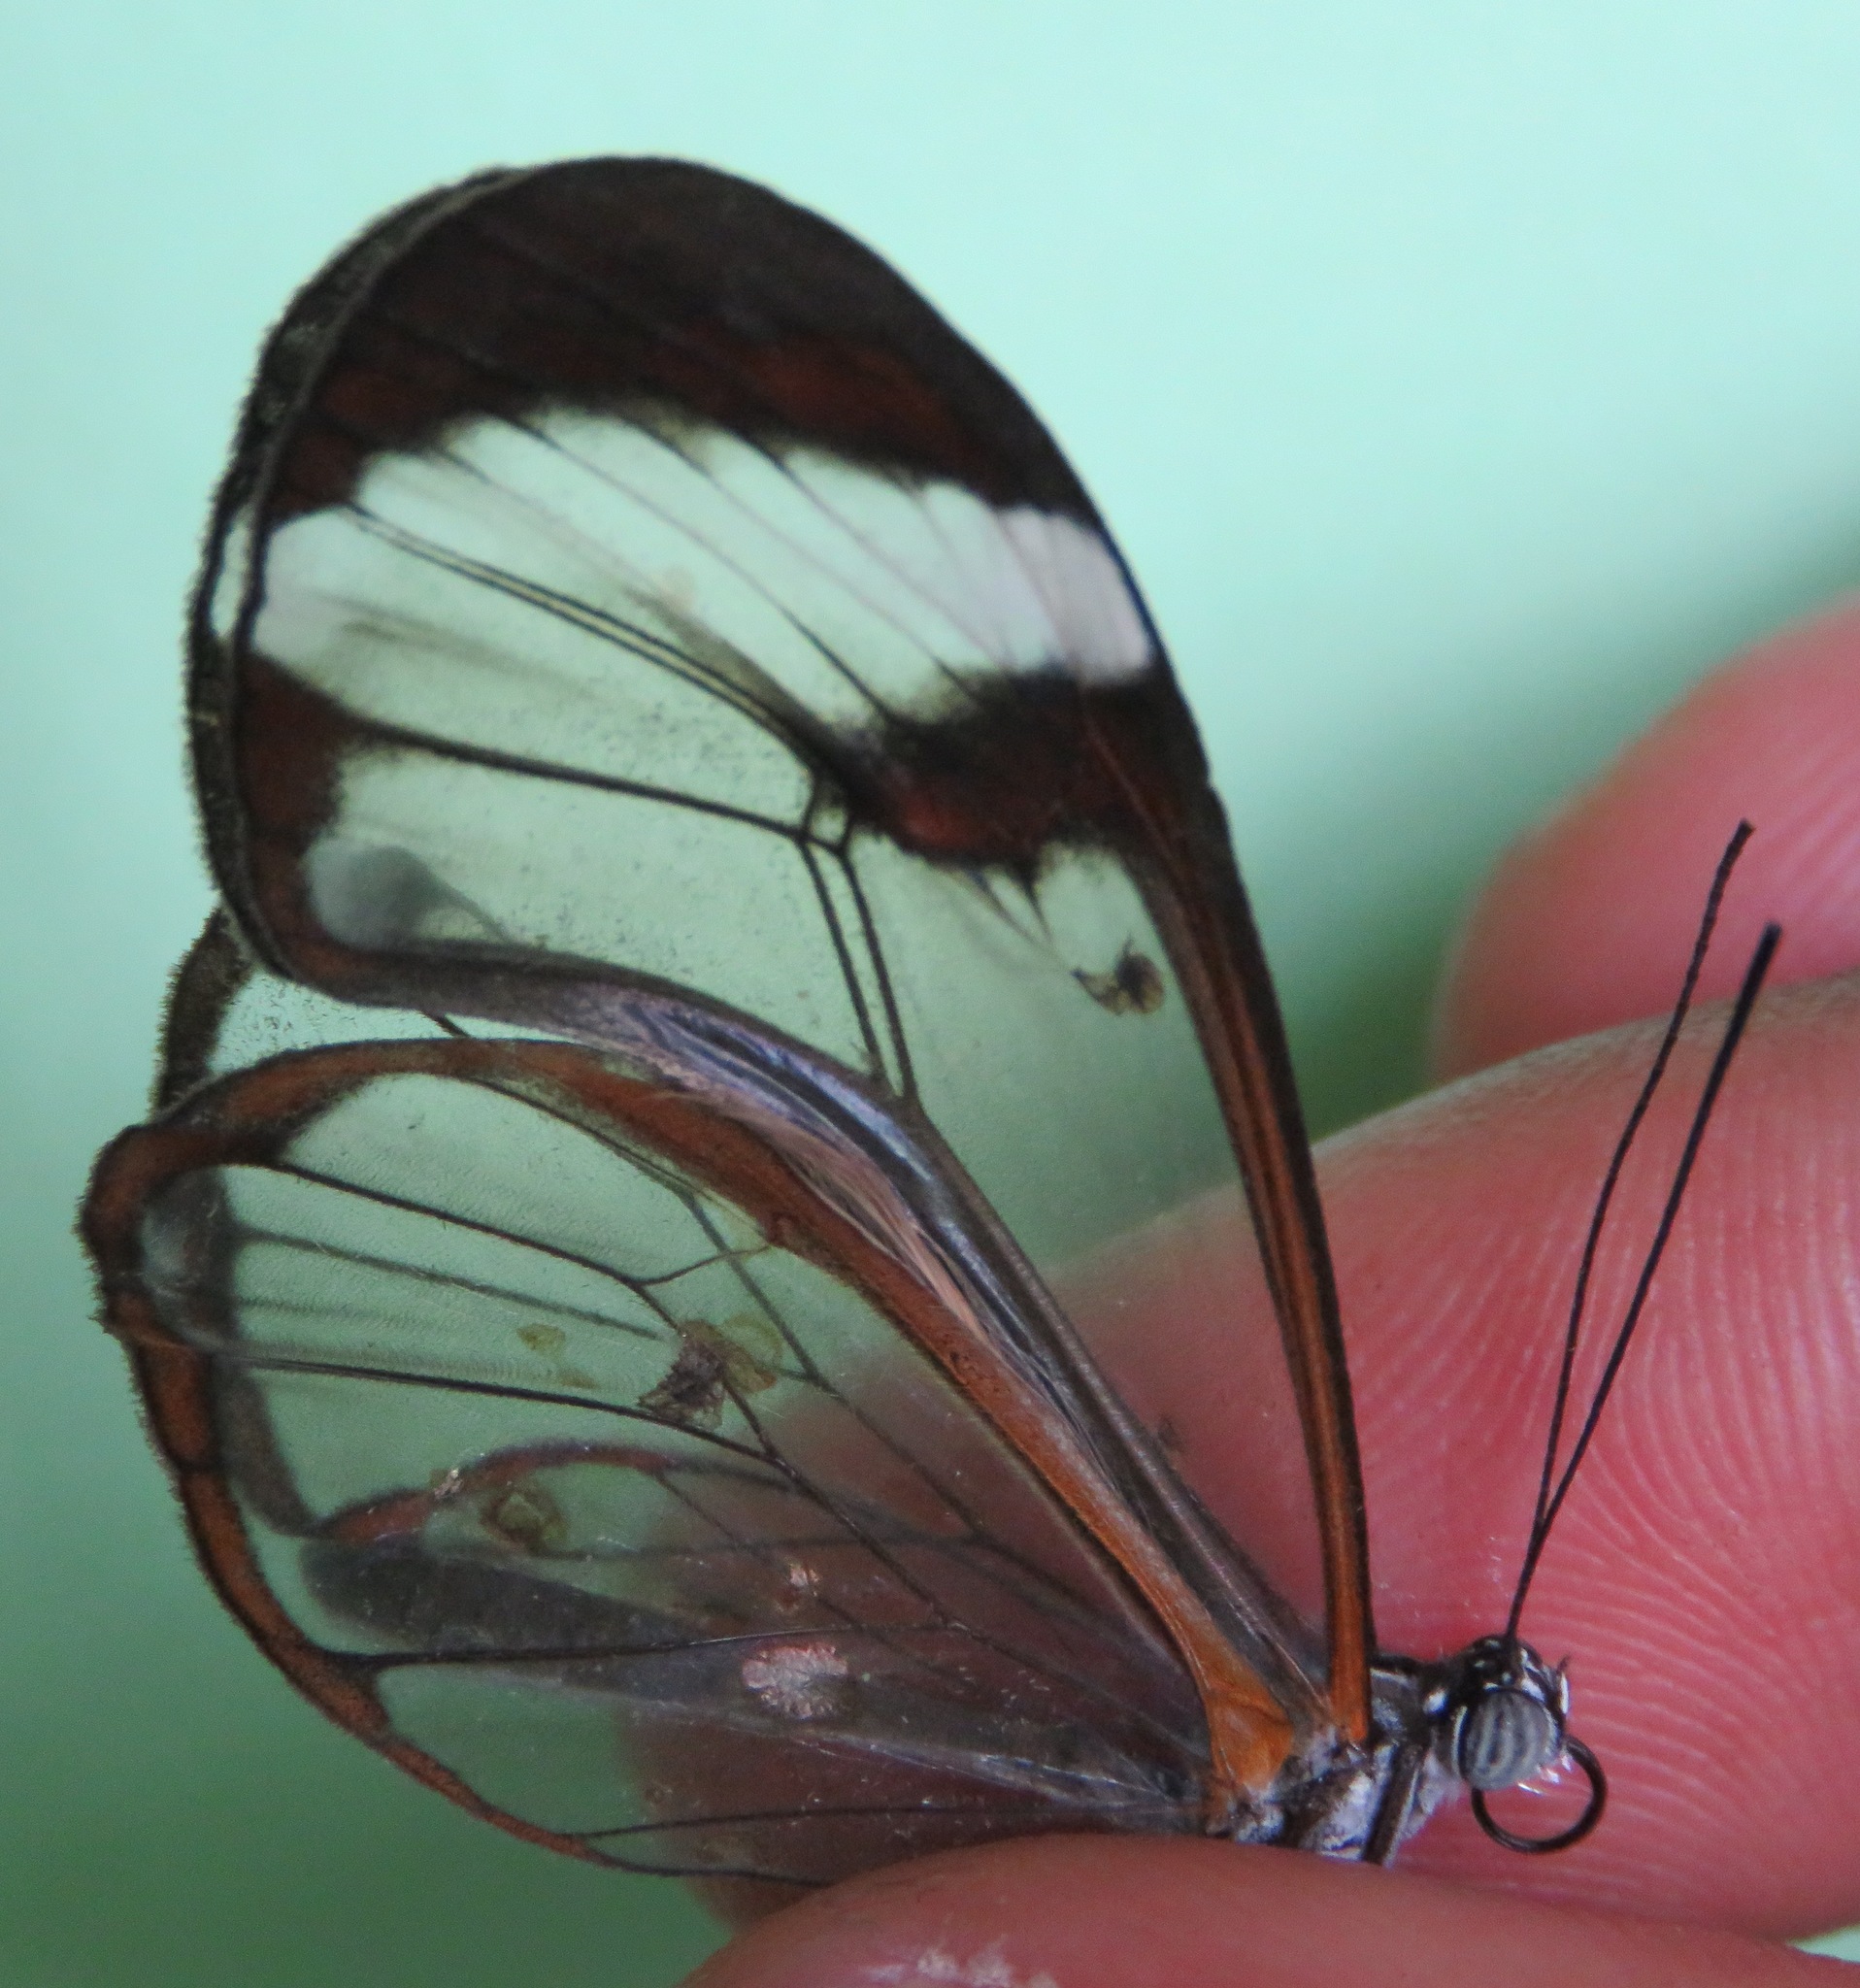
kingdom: Animalia
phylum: Arthropoda
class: Insecta
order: Lepidoptera
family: Nymphalidae
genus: Greta
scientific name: Greta morgane
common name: Thick-tipped greta
